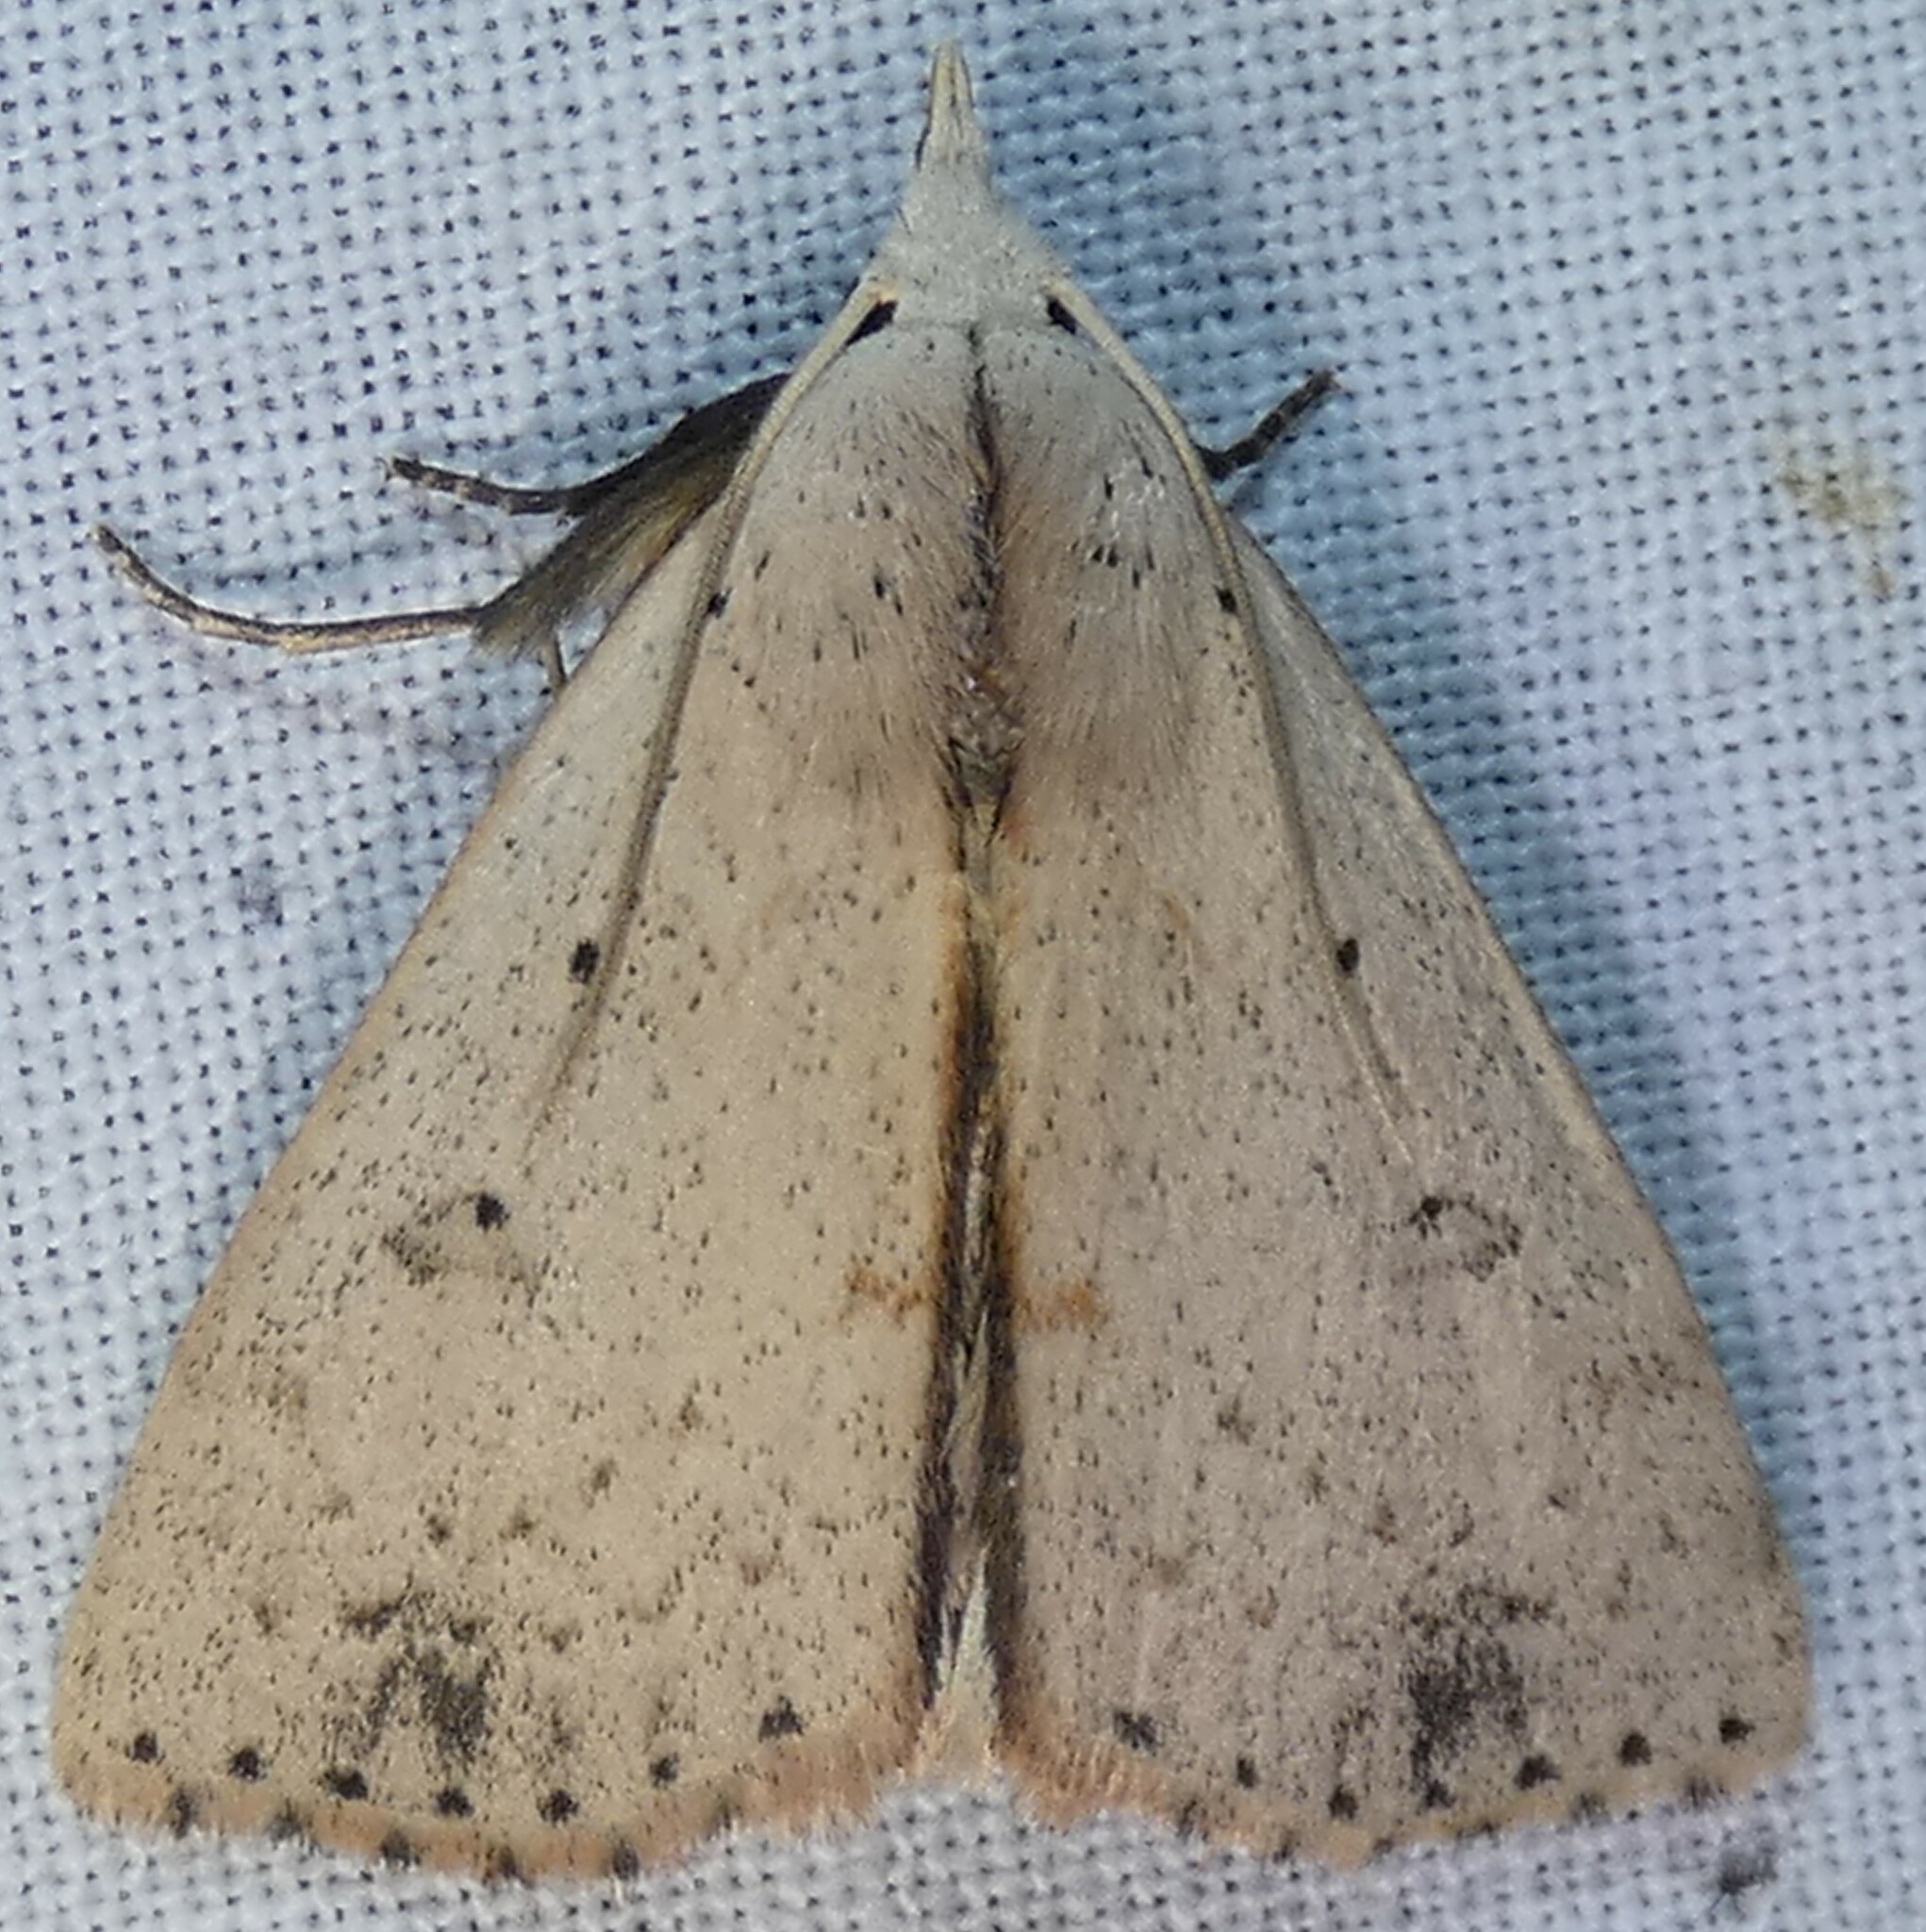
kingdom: Animalia
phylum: Arthropoda
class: Insecta
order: Lepidoptera
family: Erebidae
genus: Scolecocampa
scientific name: Scolecocampa liburna
